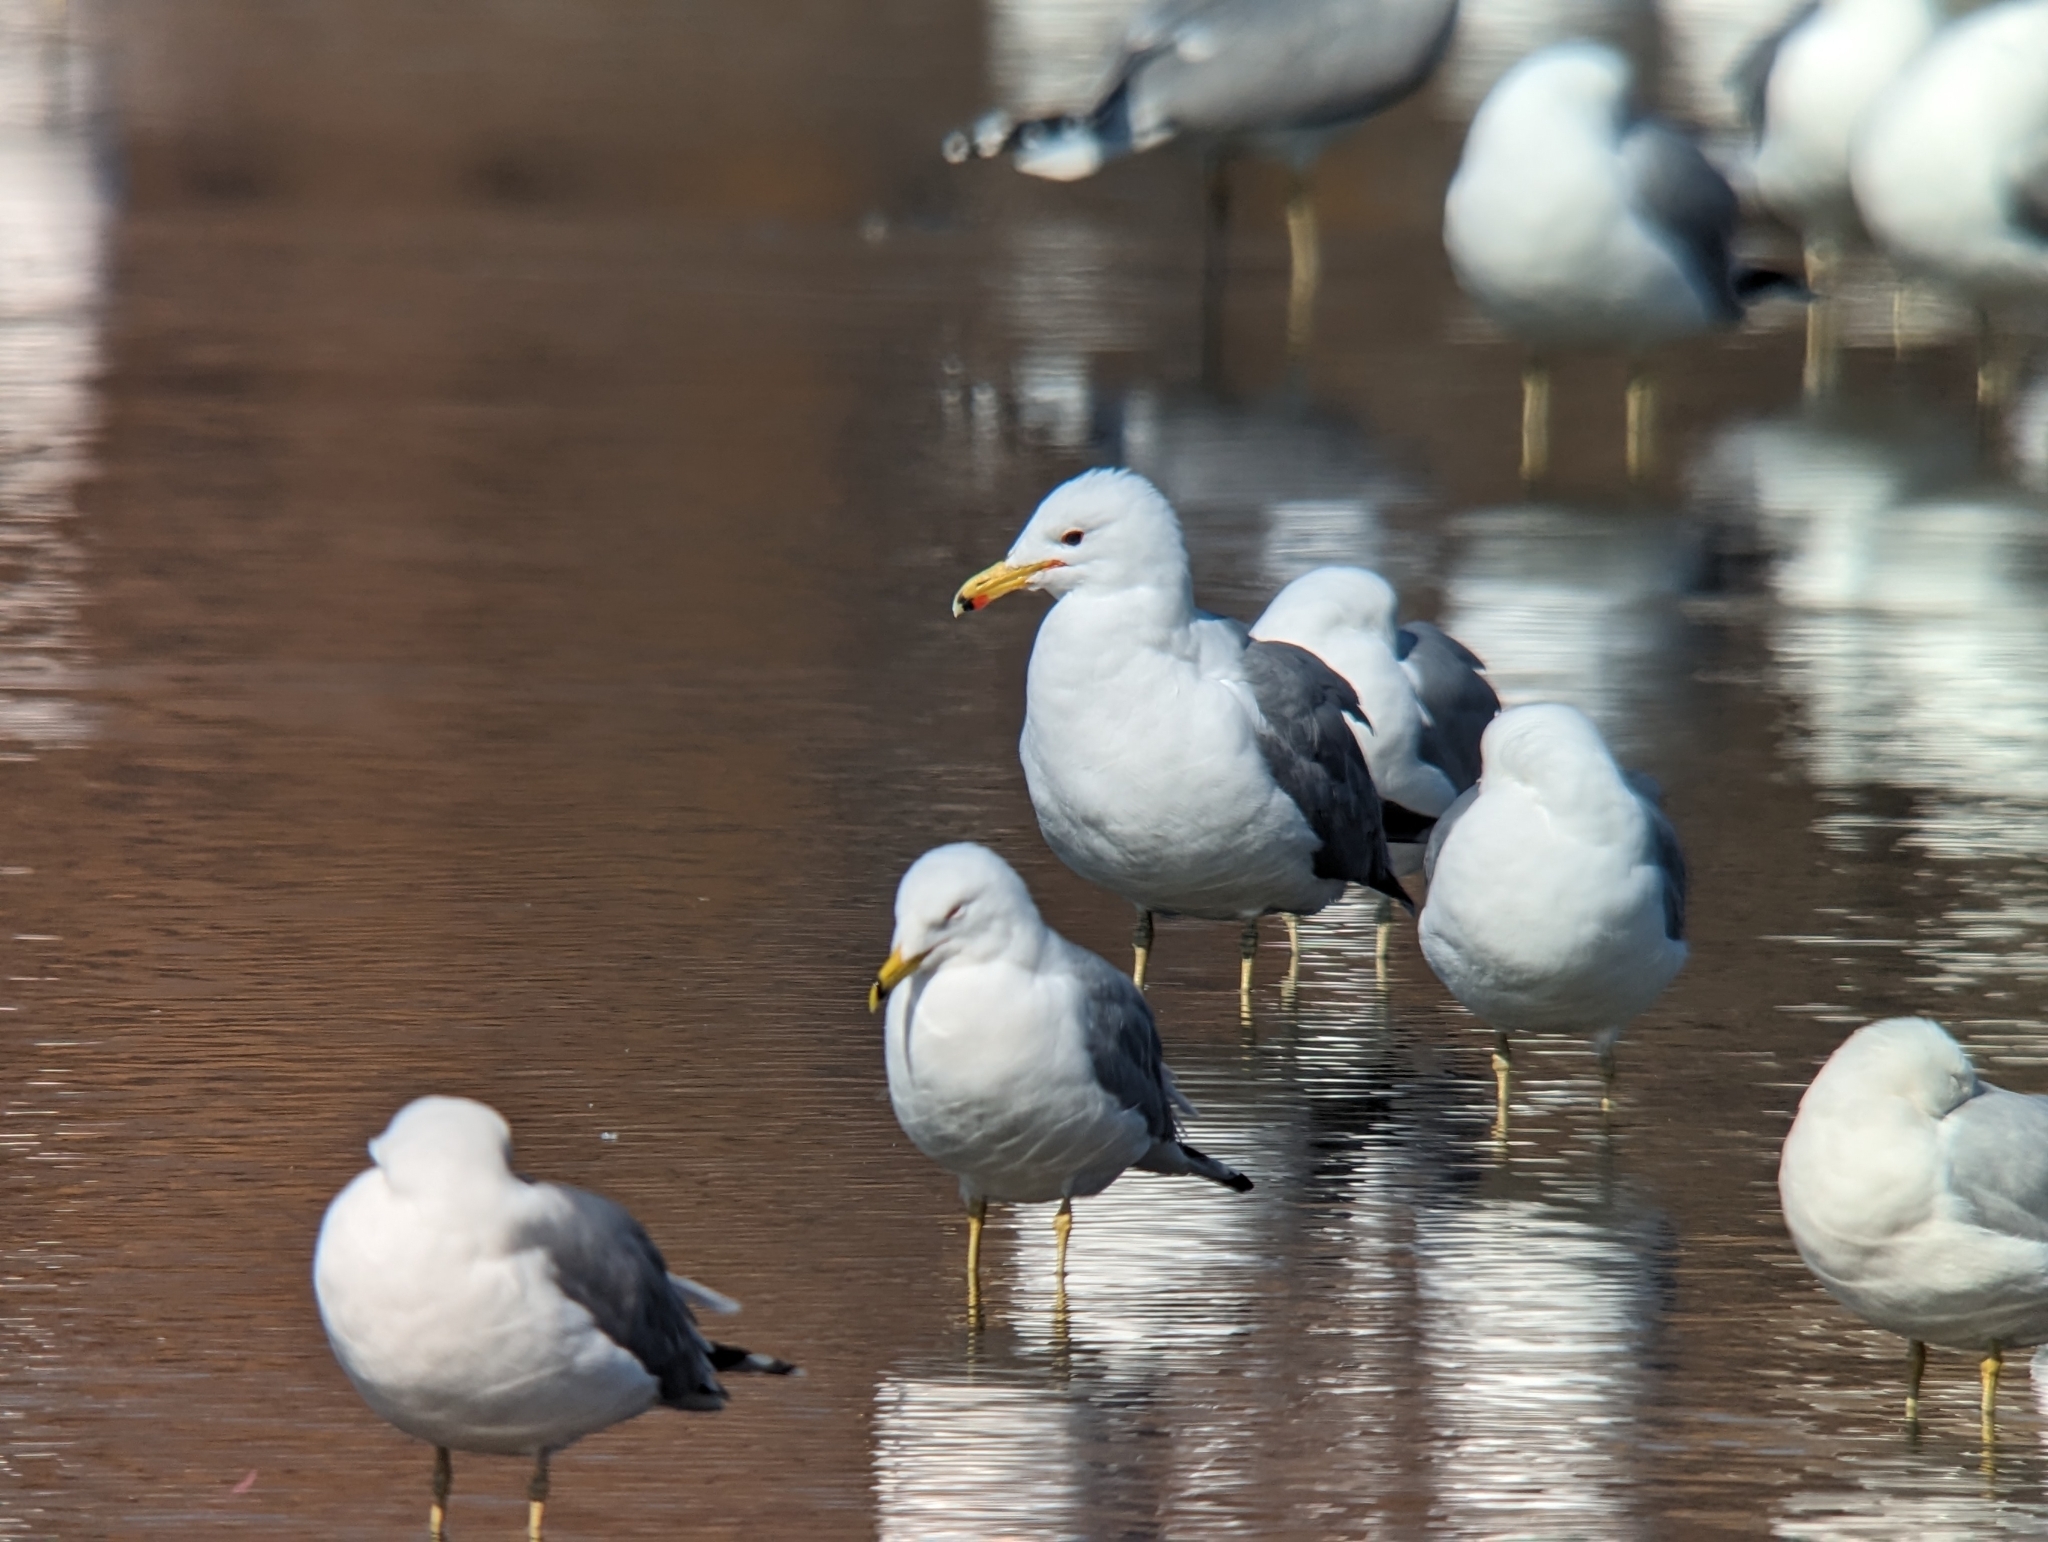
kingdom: Animalia
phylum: Chordata
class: Aves
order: Charadriiformes
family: Laridae
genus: Larus
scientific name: Larus californicus
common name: California gull
